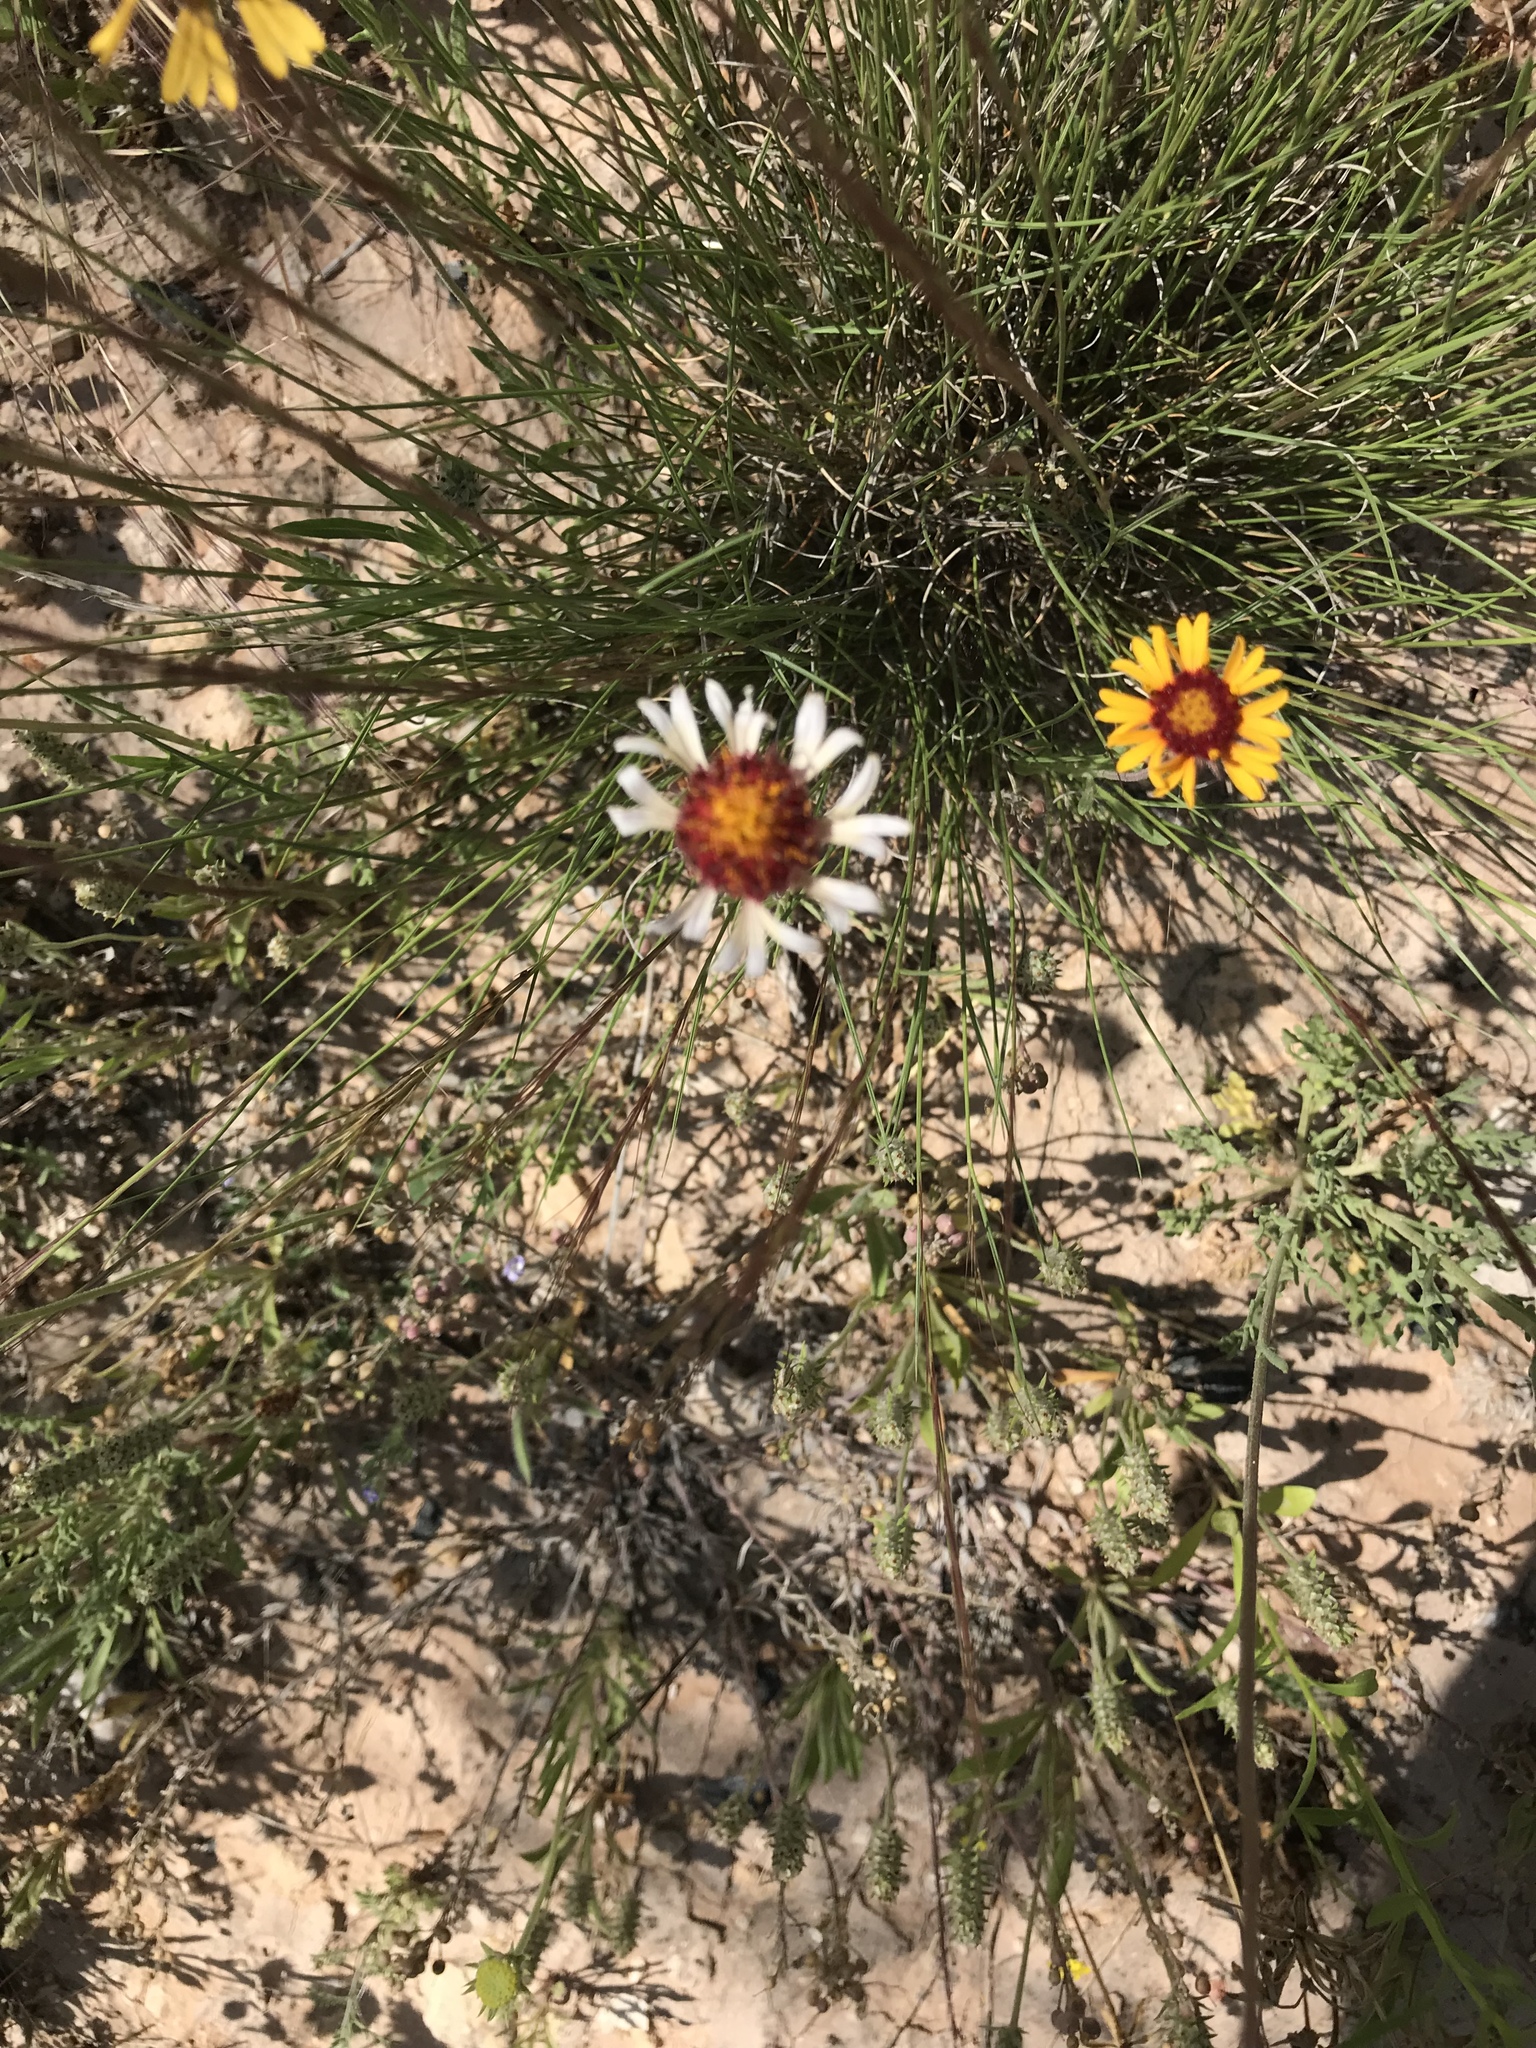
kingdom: Plantae
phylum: Tracheophyta
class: Magnoliopsida
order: Asterales
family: Asteraceae
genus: Gaillardia
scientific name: Gaillardia pinnatifida
